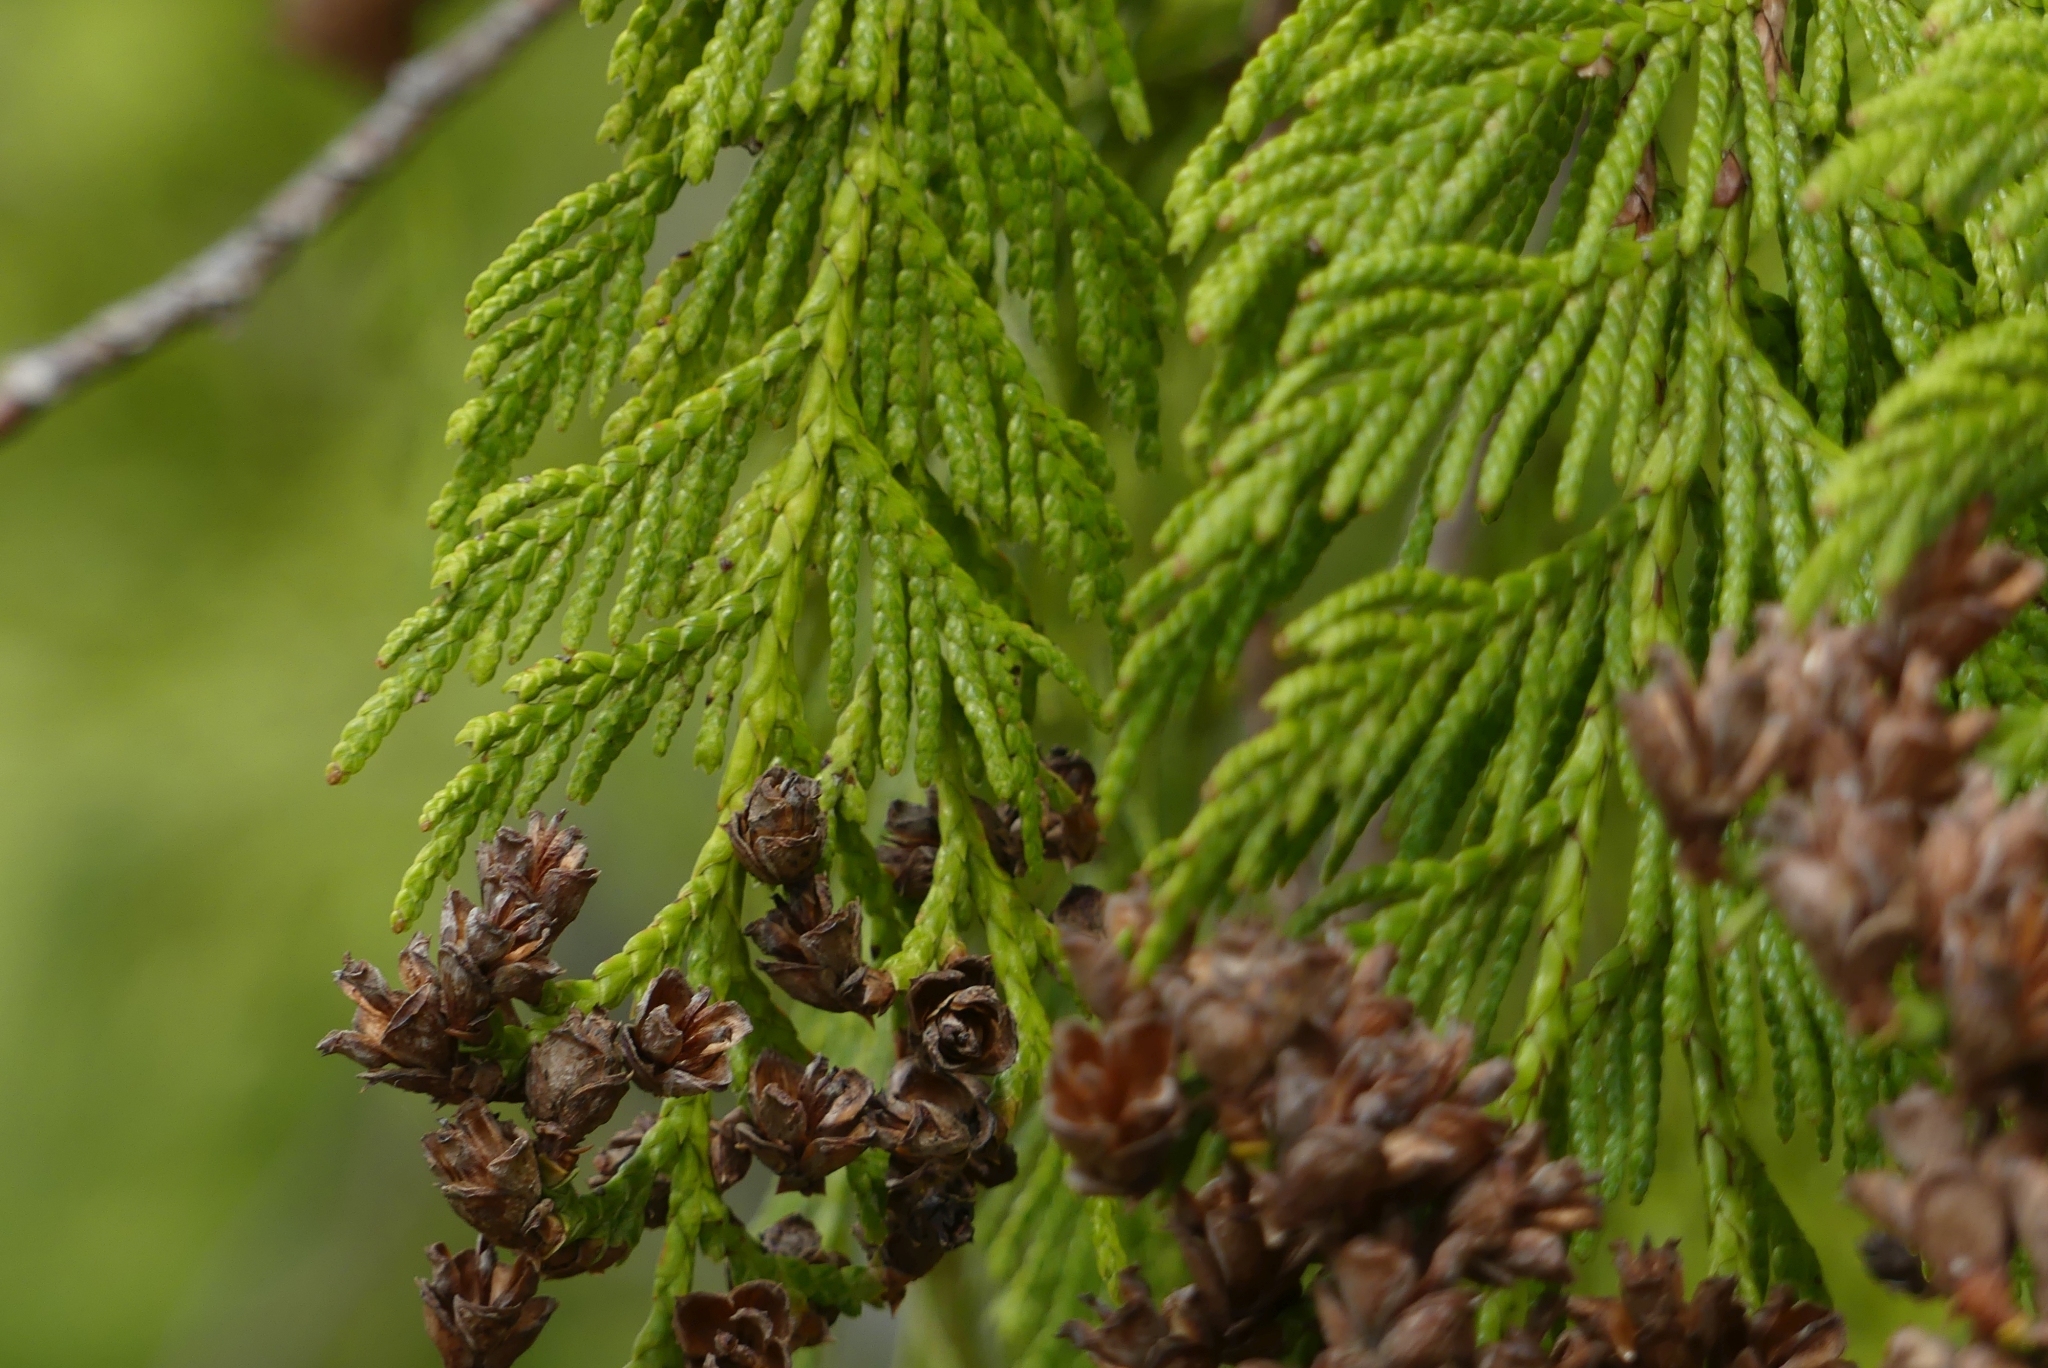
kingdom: Plantae
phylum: Tracheophyta
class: Pinopsida
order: Pinales
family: Cupressaceae
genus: Thuja
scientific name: Thuja plicata
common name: Western red-cedar
